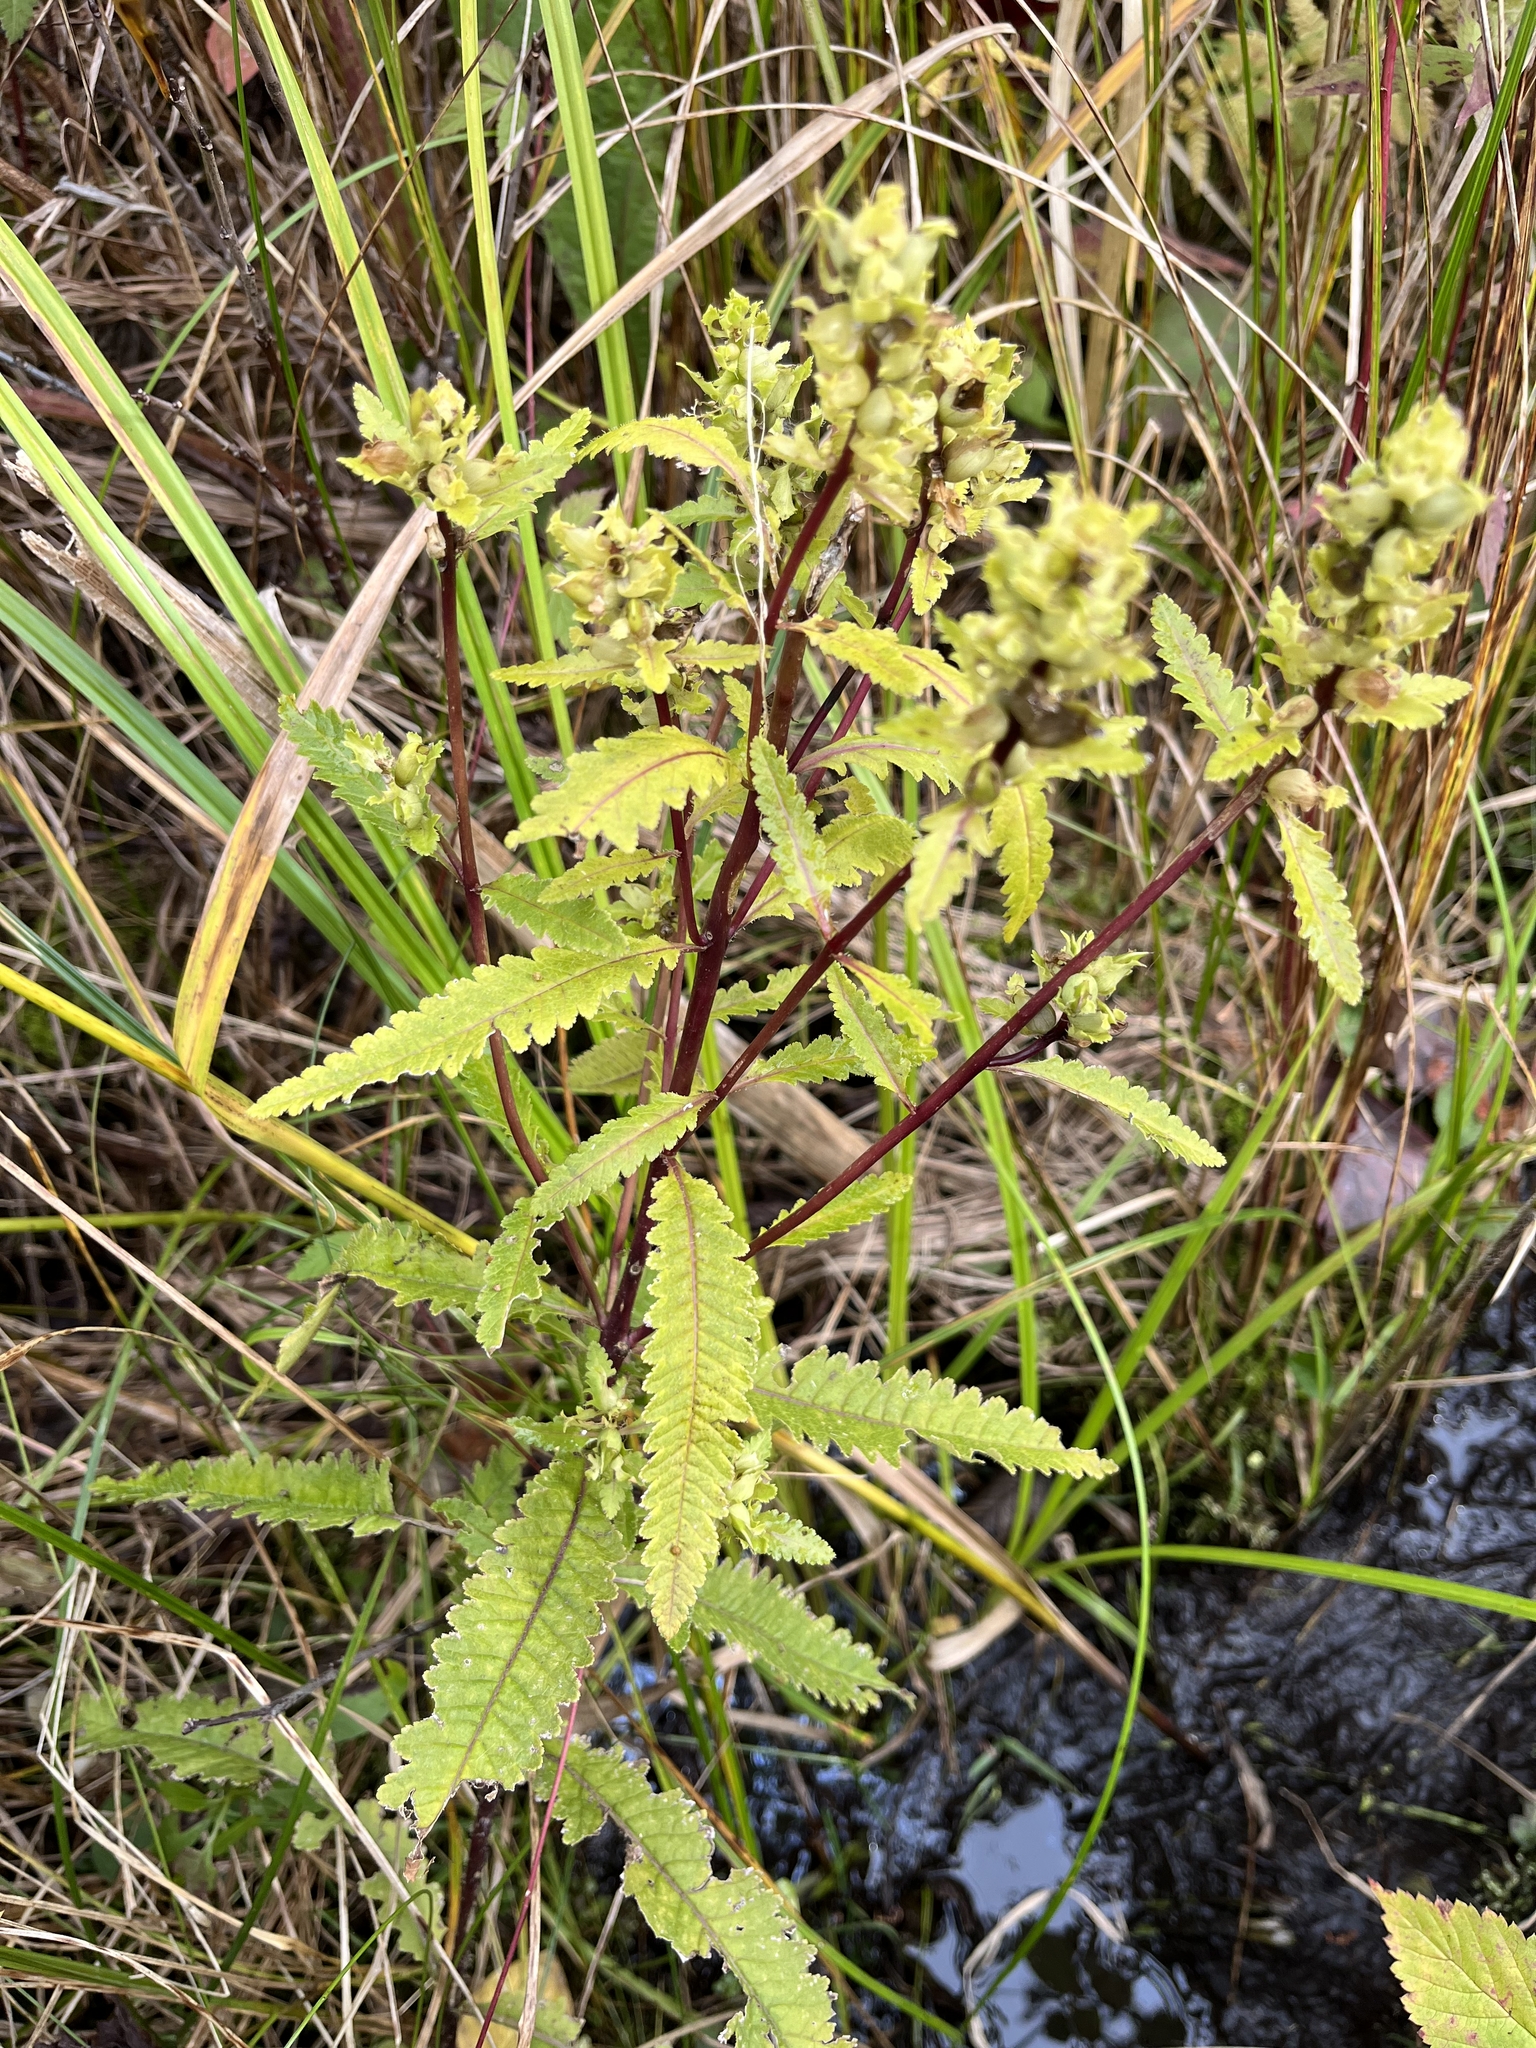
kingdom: Plantae
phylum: Tracheophyta
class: Magnoliopsida
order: Lamiales
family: Orobanchaceae
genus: Pedicularis
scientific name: Pedicularis lanceolata
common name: Swamp lousewort
